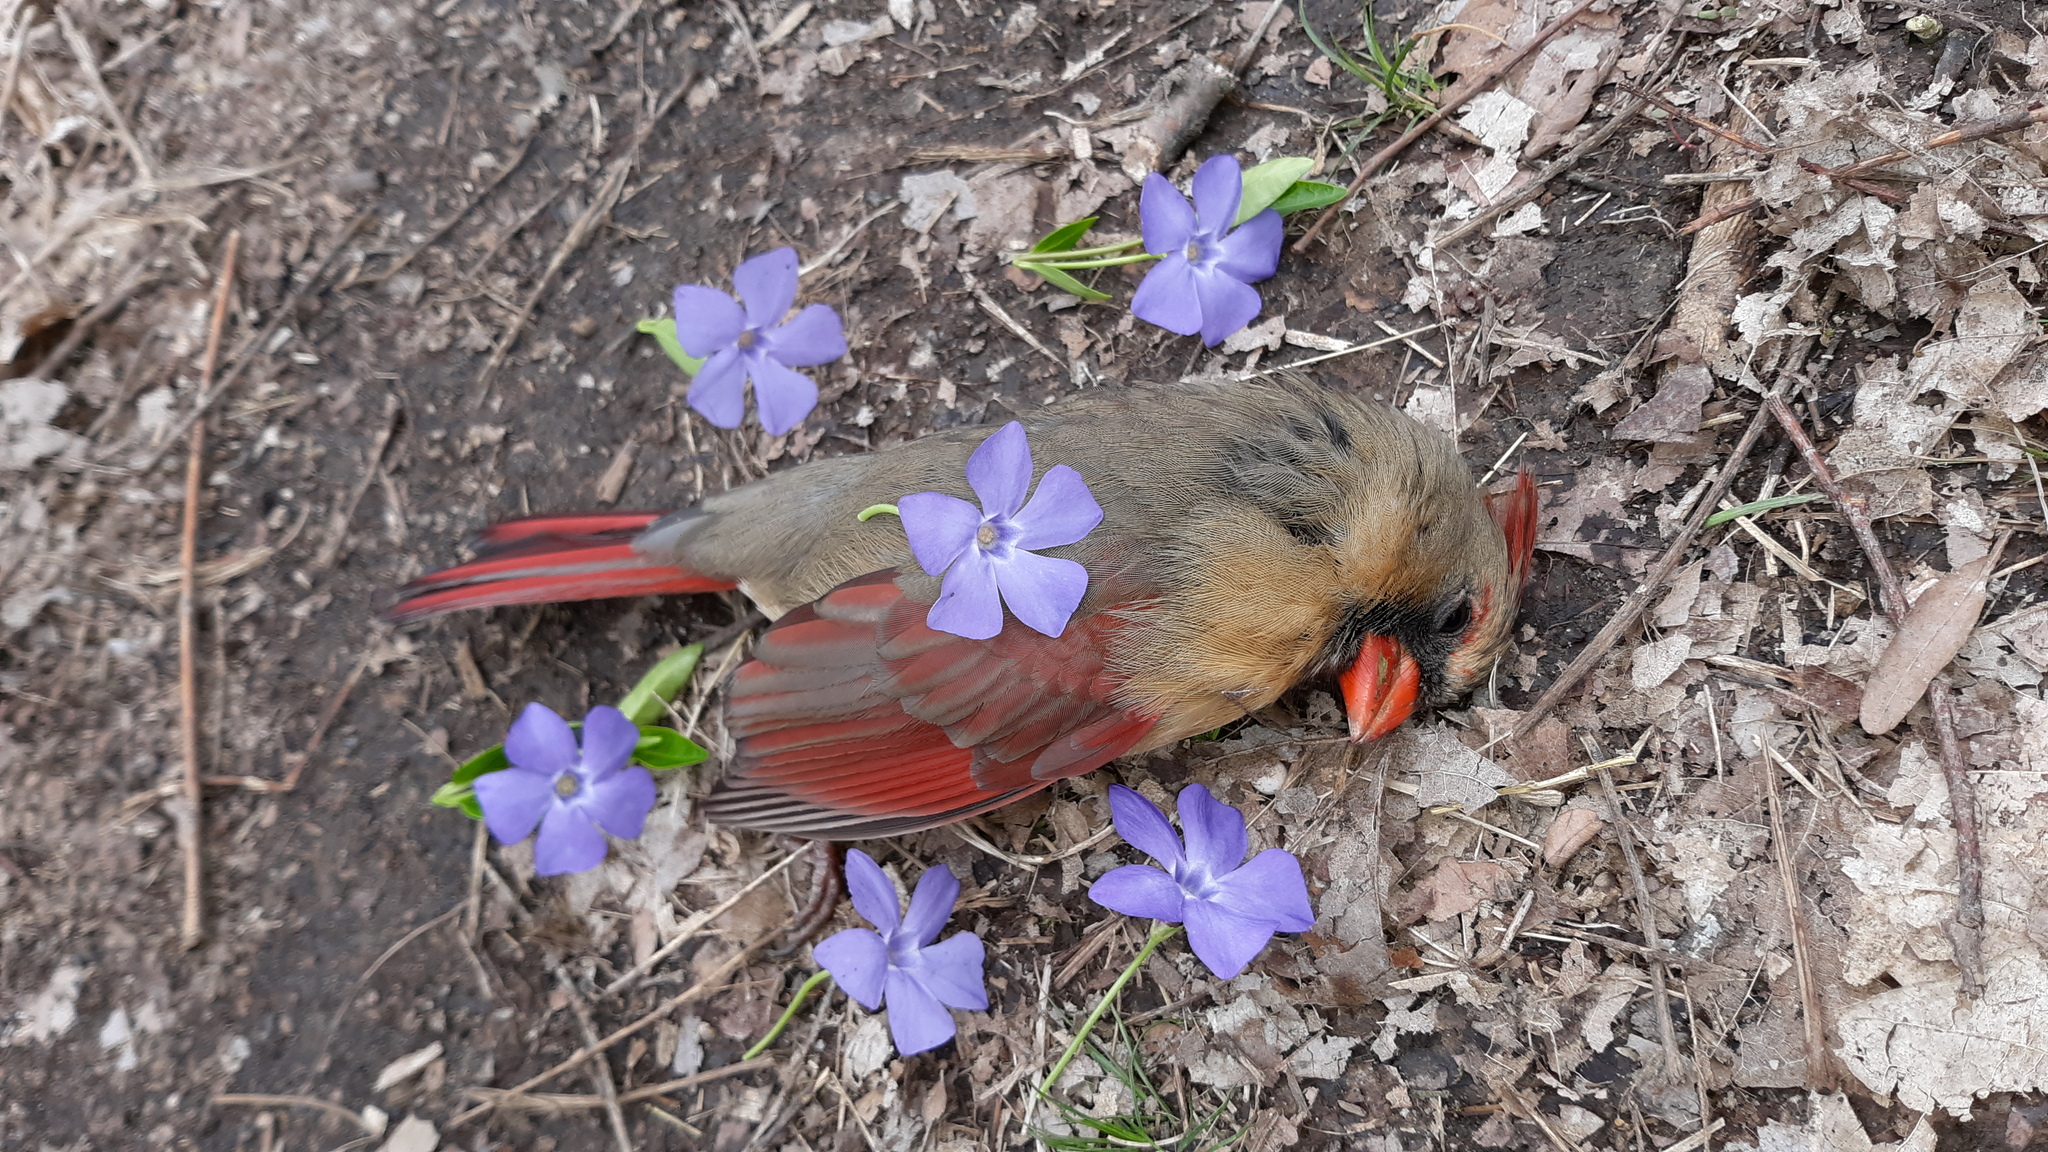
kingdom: Animalia
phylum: Chordata
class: Aves
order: Passeriformes
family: Cardinalidae
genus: Cardinalis
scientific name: Cardinalis cardinalis
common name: Northern cardinal
